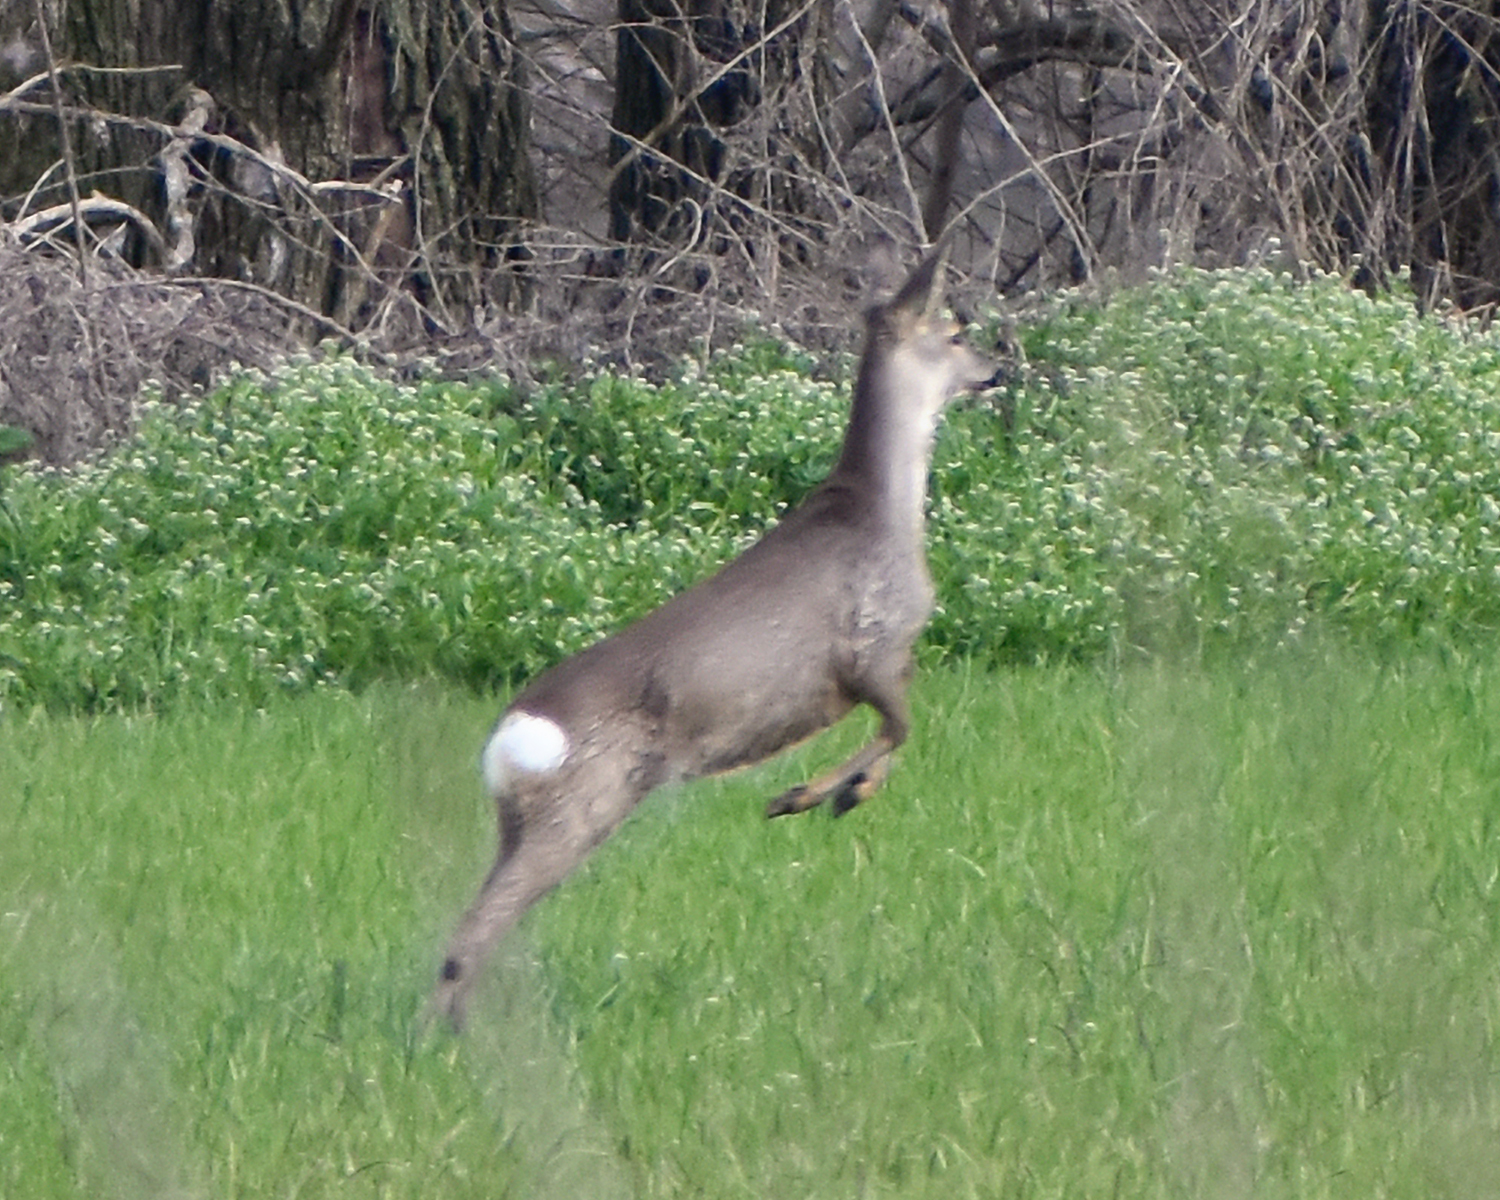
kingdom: Animalia
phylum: Chordata
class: Mammalia
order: Artiodactyla
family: Cervidae
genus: Capreolus
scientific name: Capreolus capreolus
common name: Western roe deer
